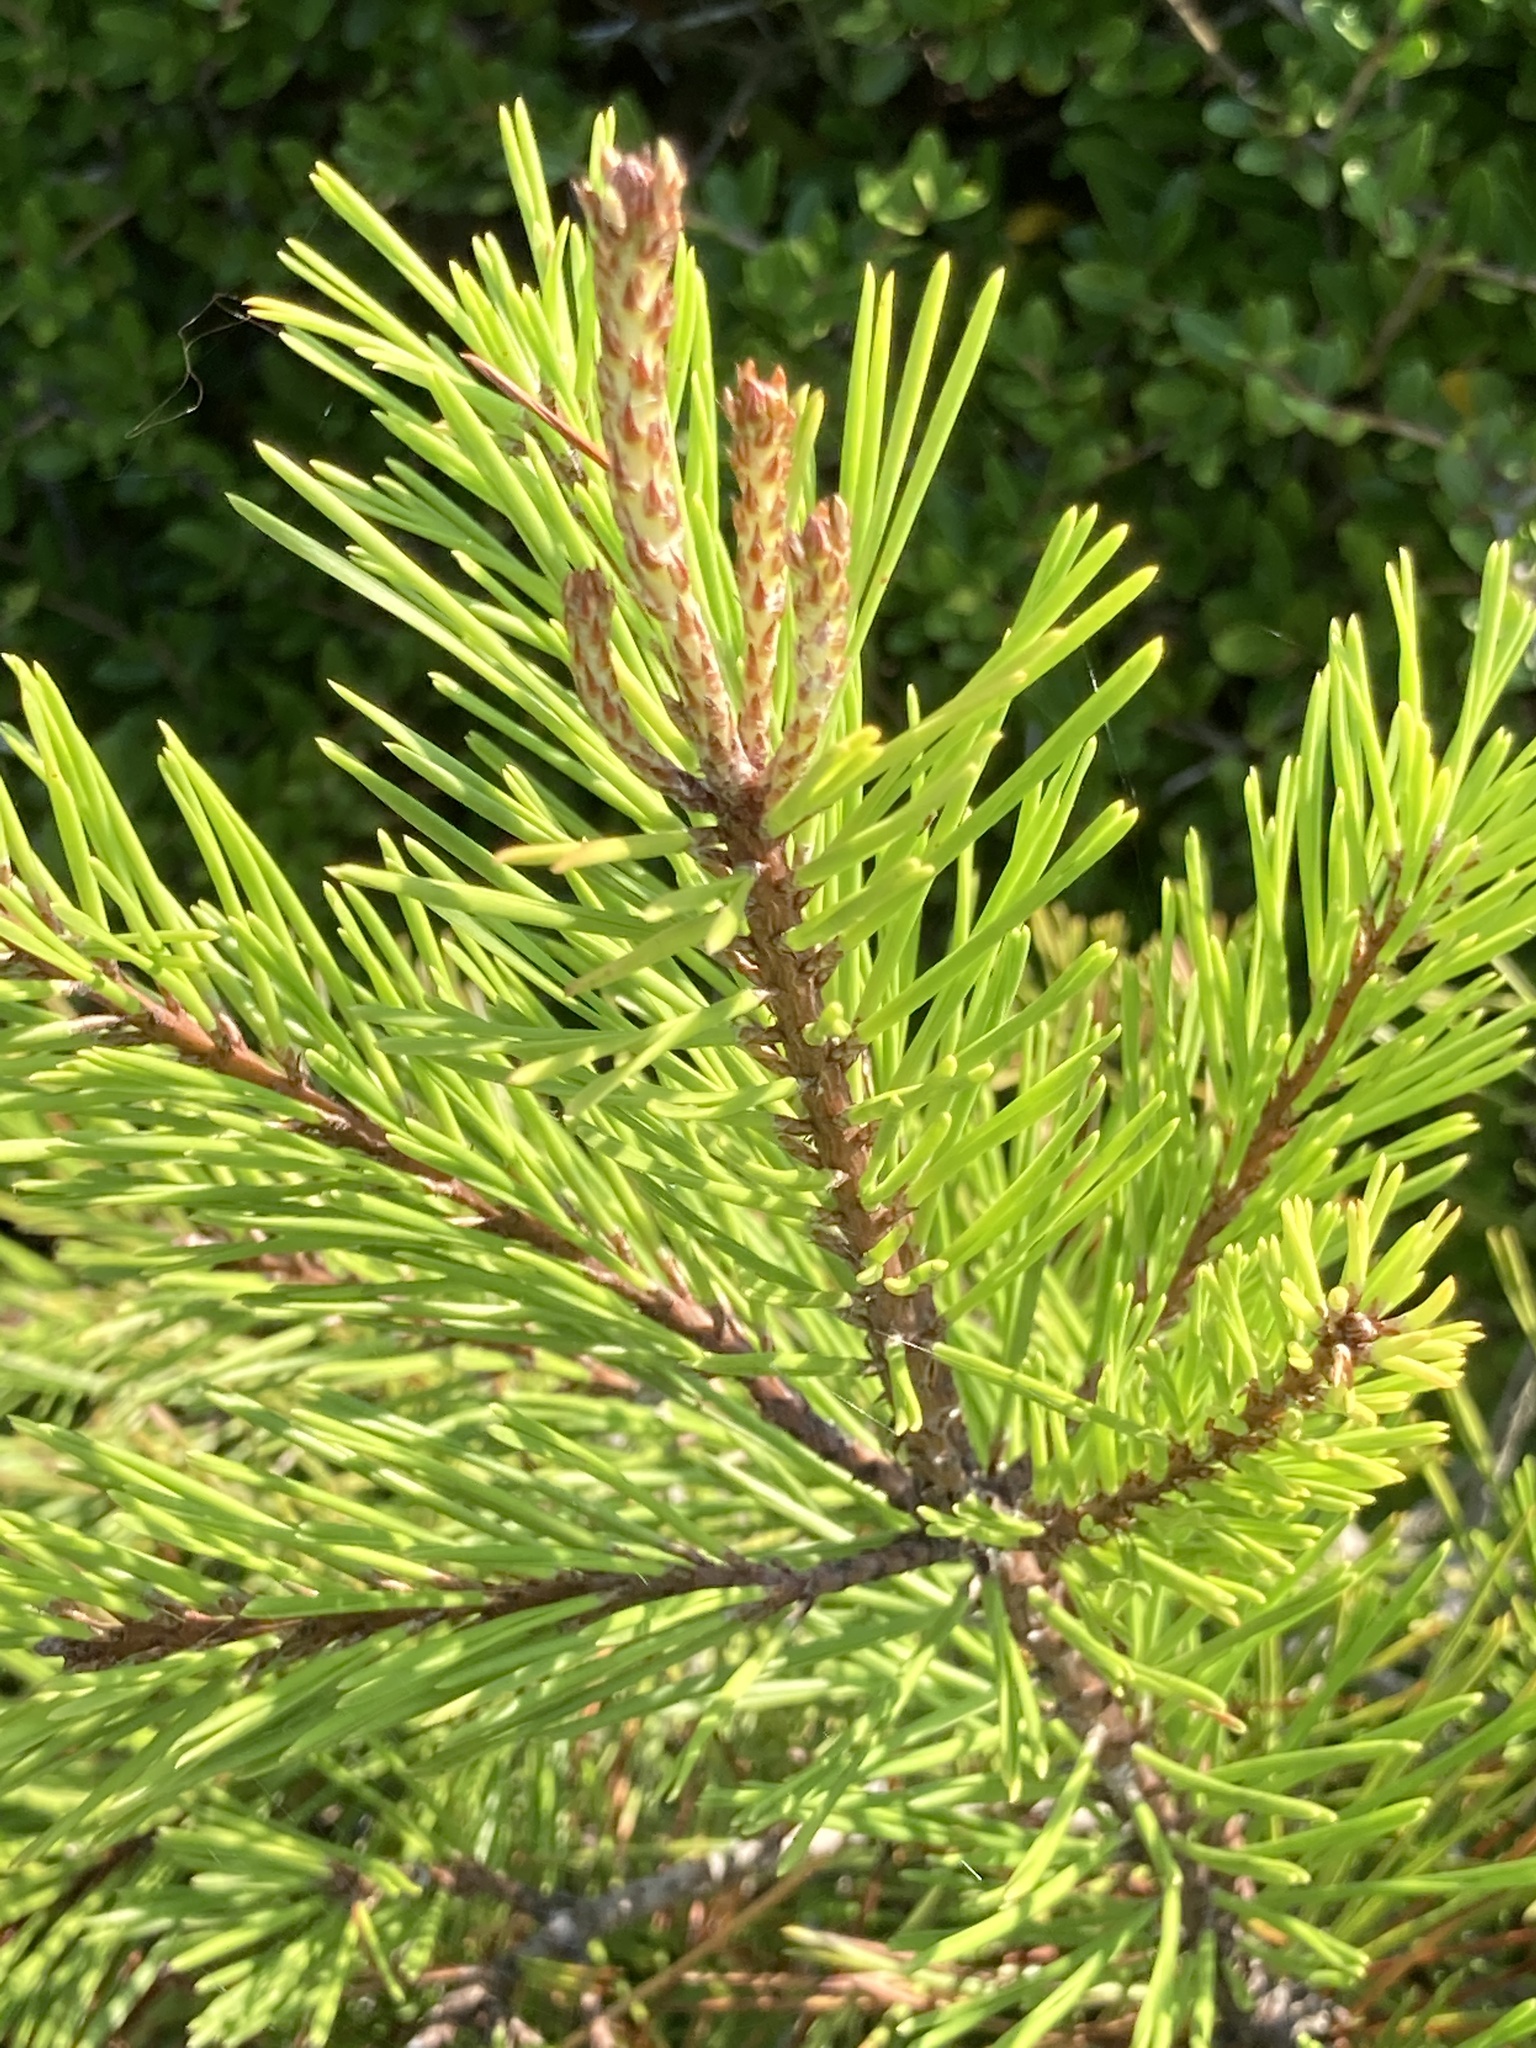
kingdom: Plantae
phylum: Tracheophyta
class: Pinopsida
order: Pinales
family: Pinaceae
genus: Pinus
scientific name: Pinus clausa
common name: Sand pine
